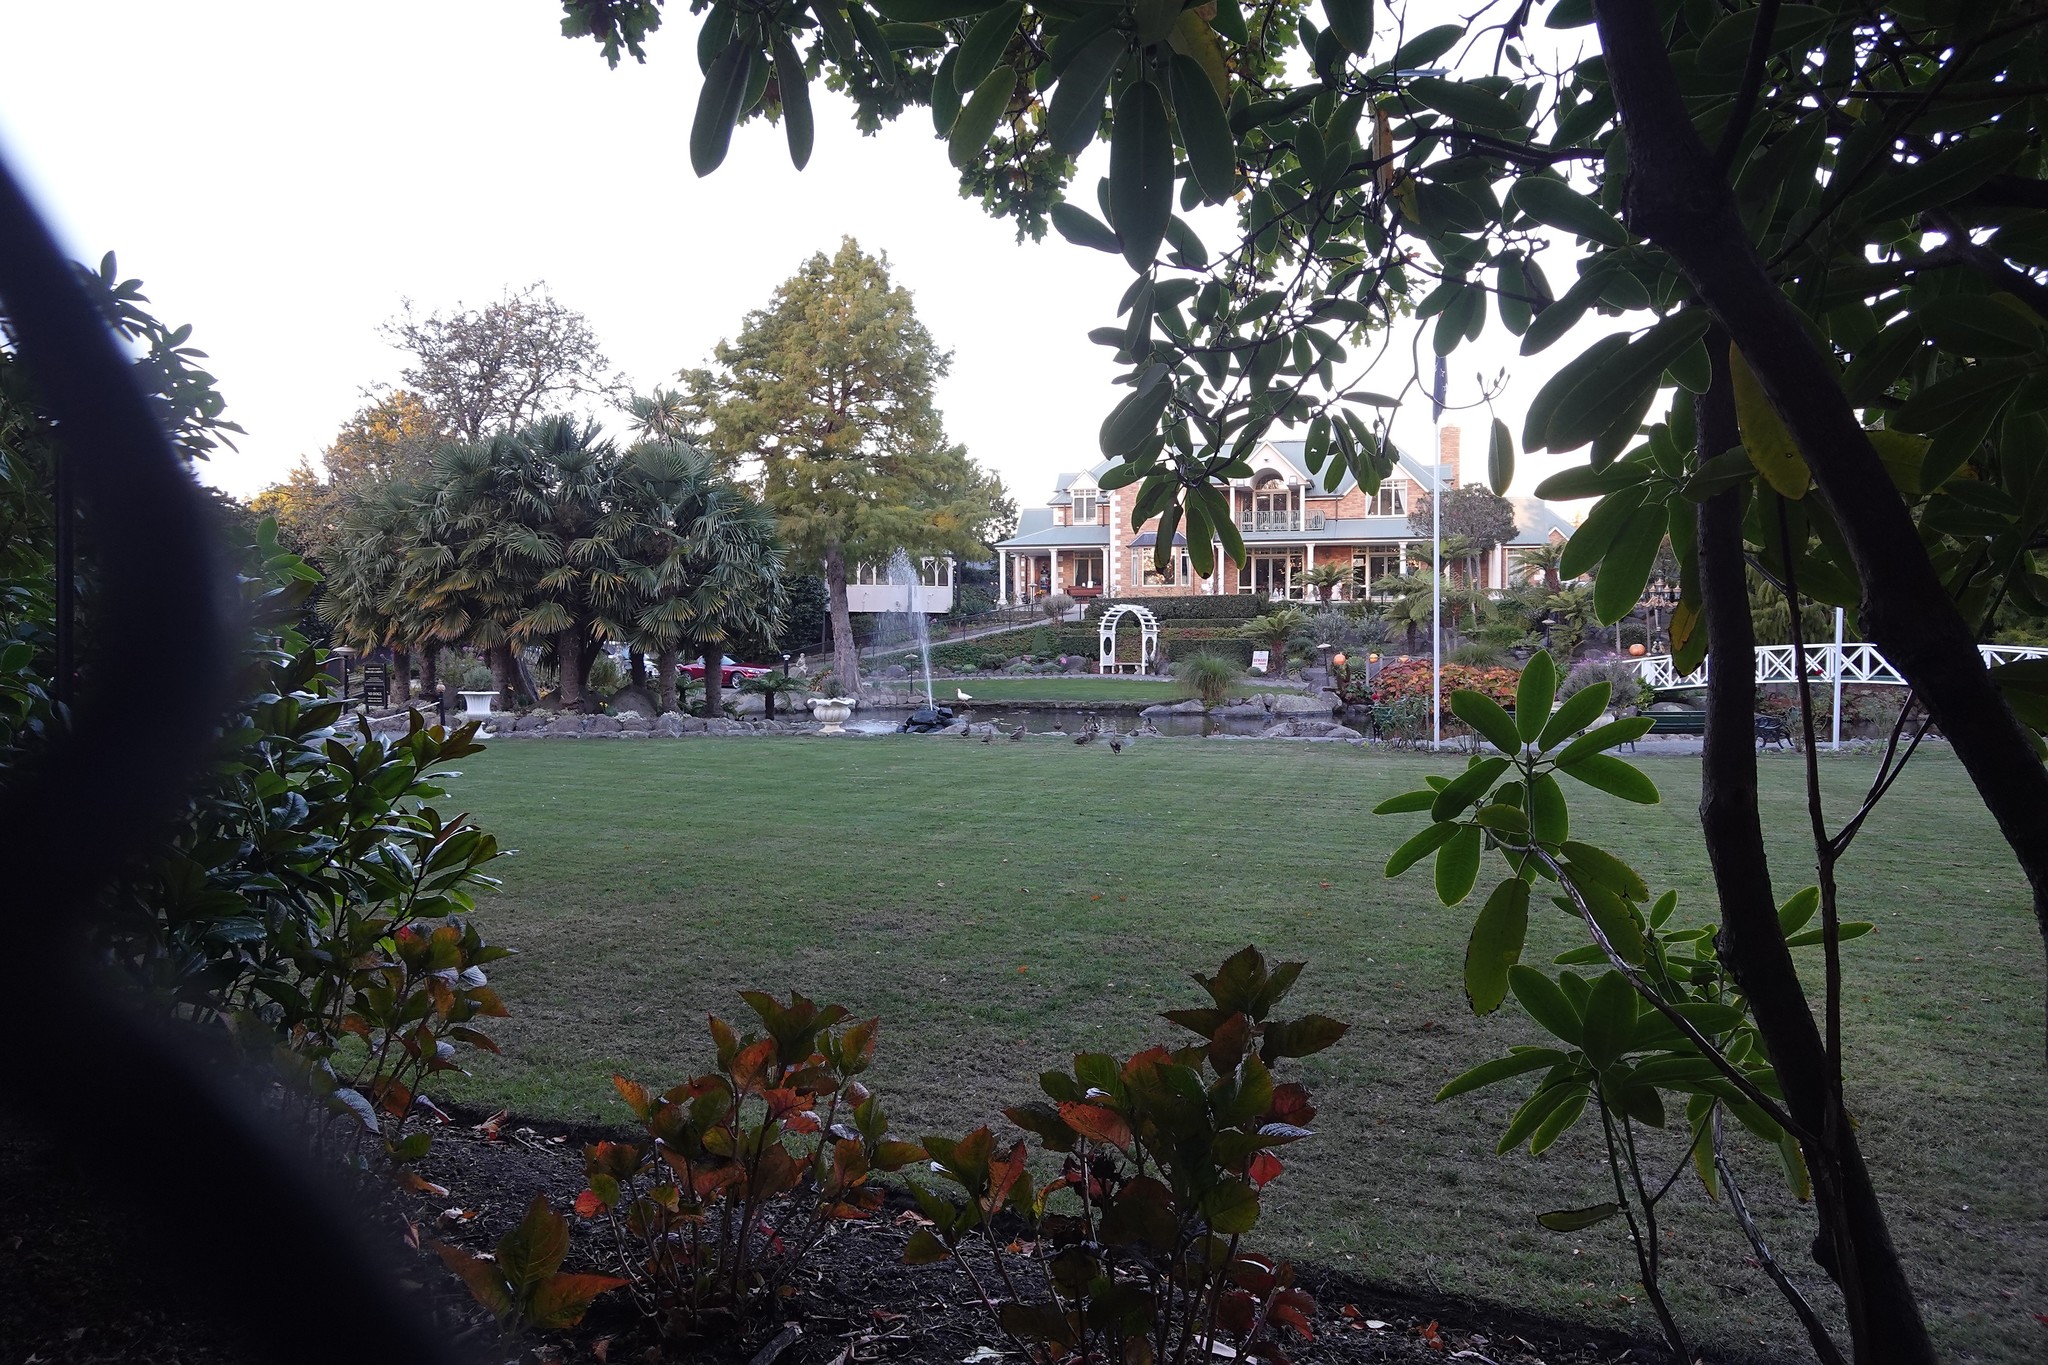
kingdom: Animalia
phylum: Chordata
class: Aves
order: Anseriformes
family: Anatidae
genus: Anas
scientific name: Anas platyrhynchos
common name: Mallard
